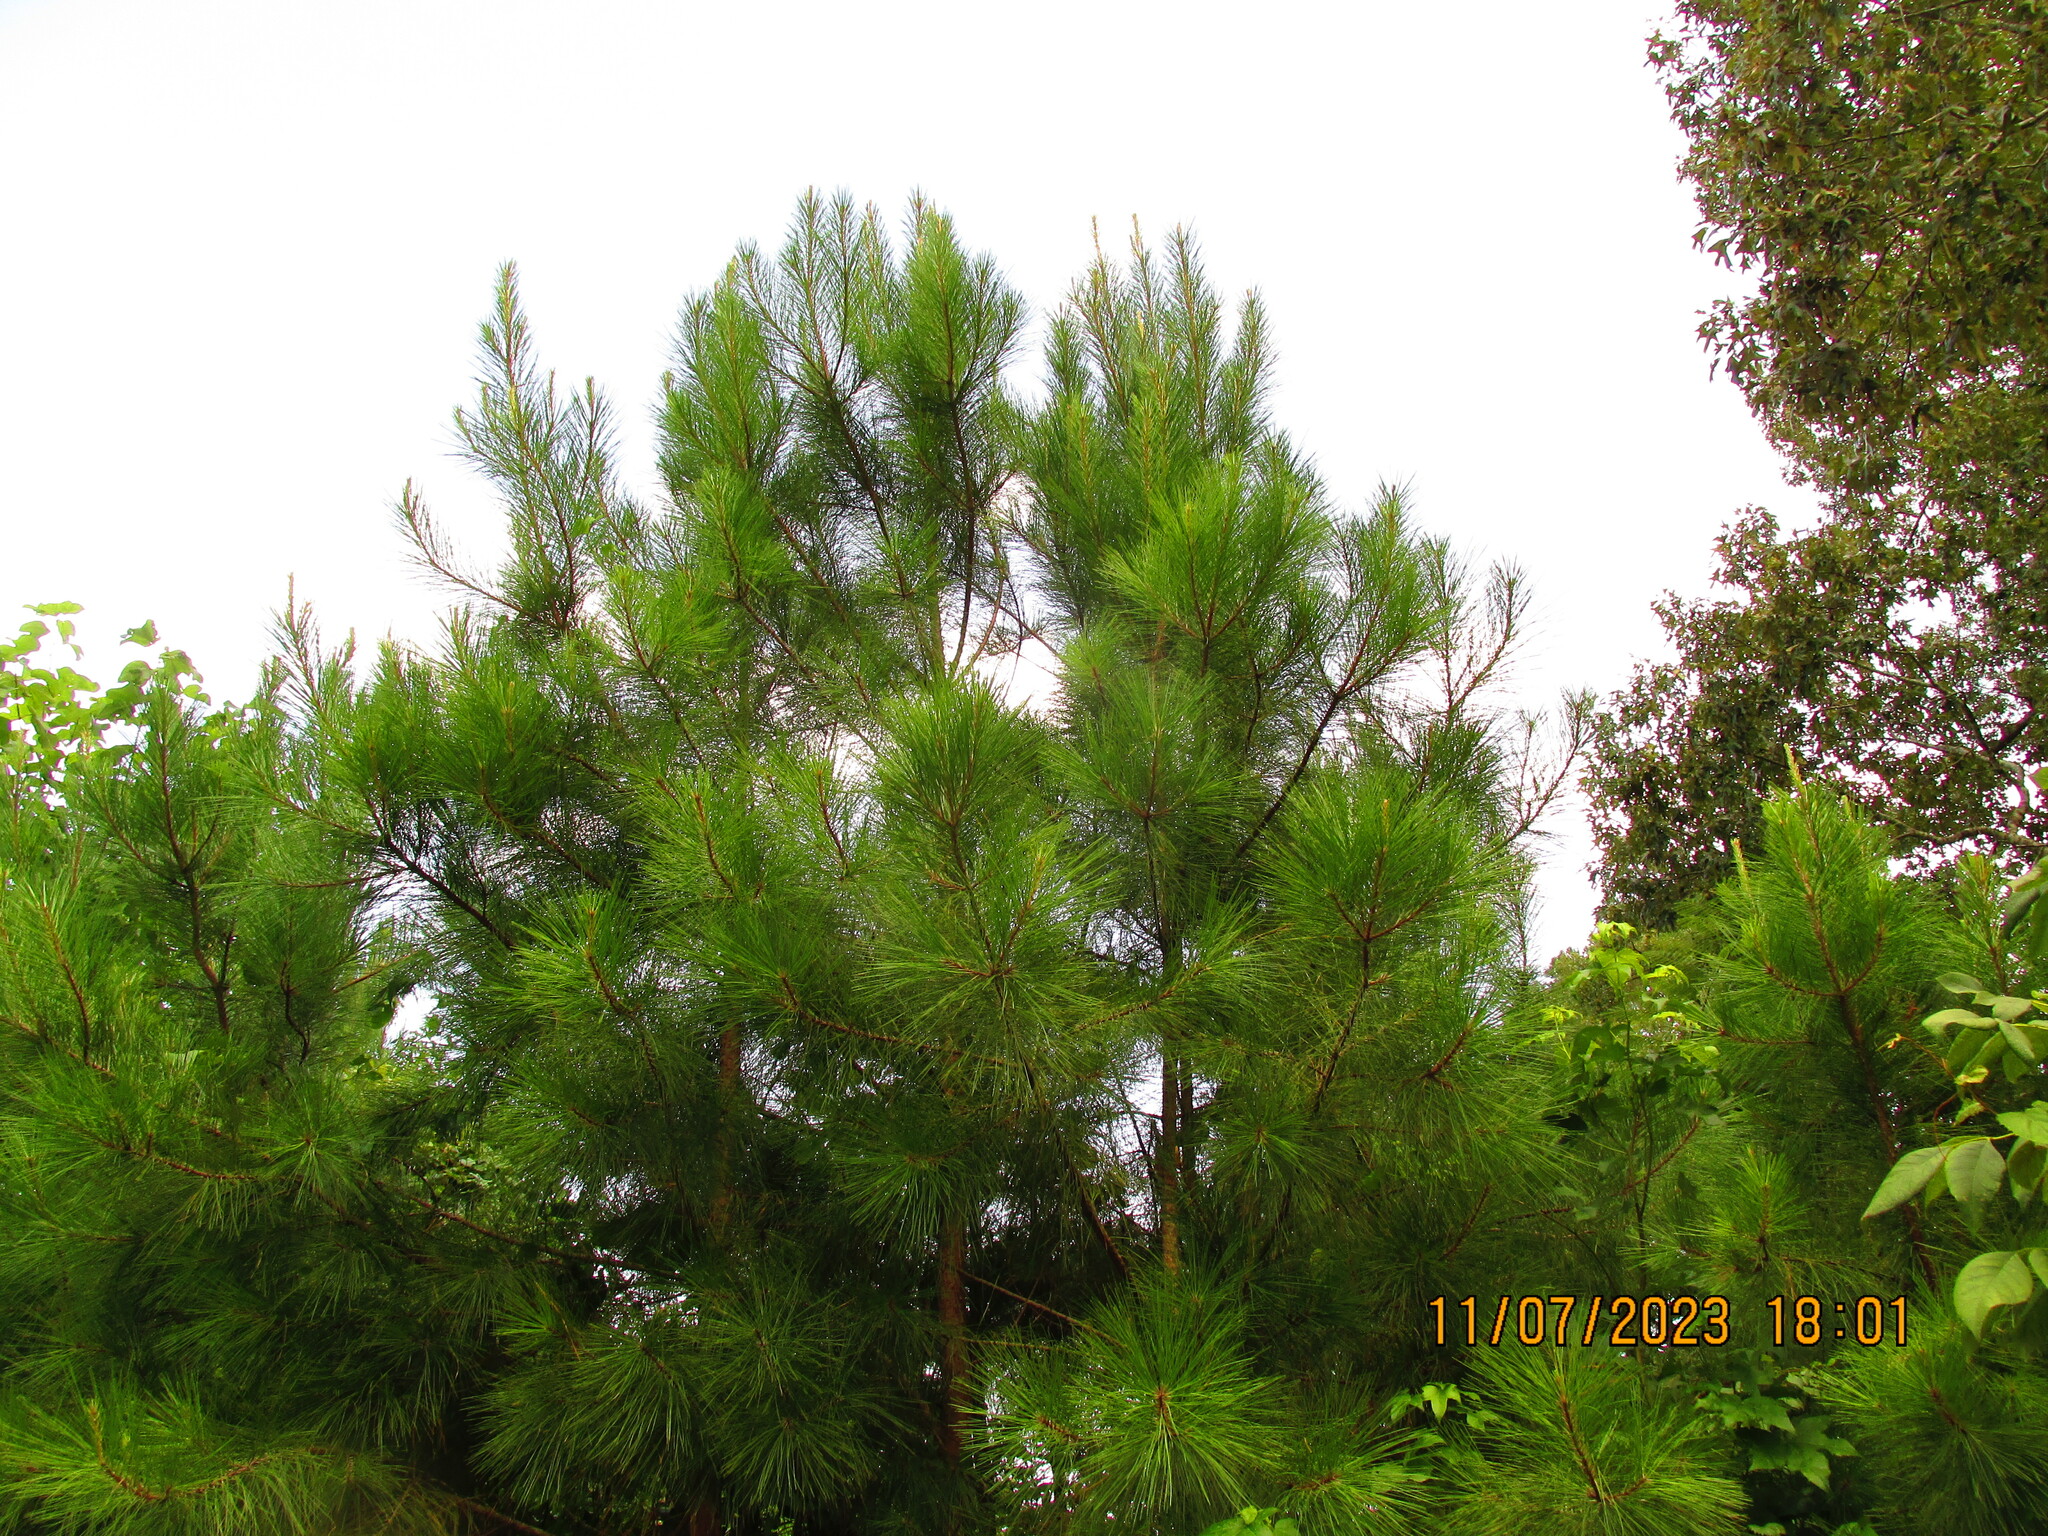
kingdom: Plantae
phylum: Tracheophyta
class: Pinopsida
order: Pinales
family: Pinaceae
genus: Pinus
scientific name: Pinus taeda
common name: Loblolly pine
